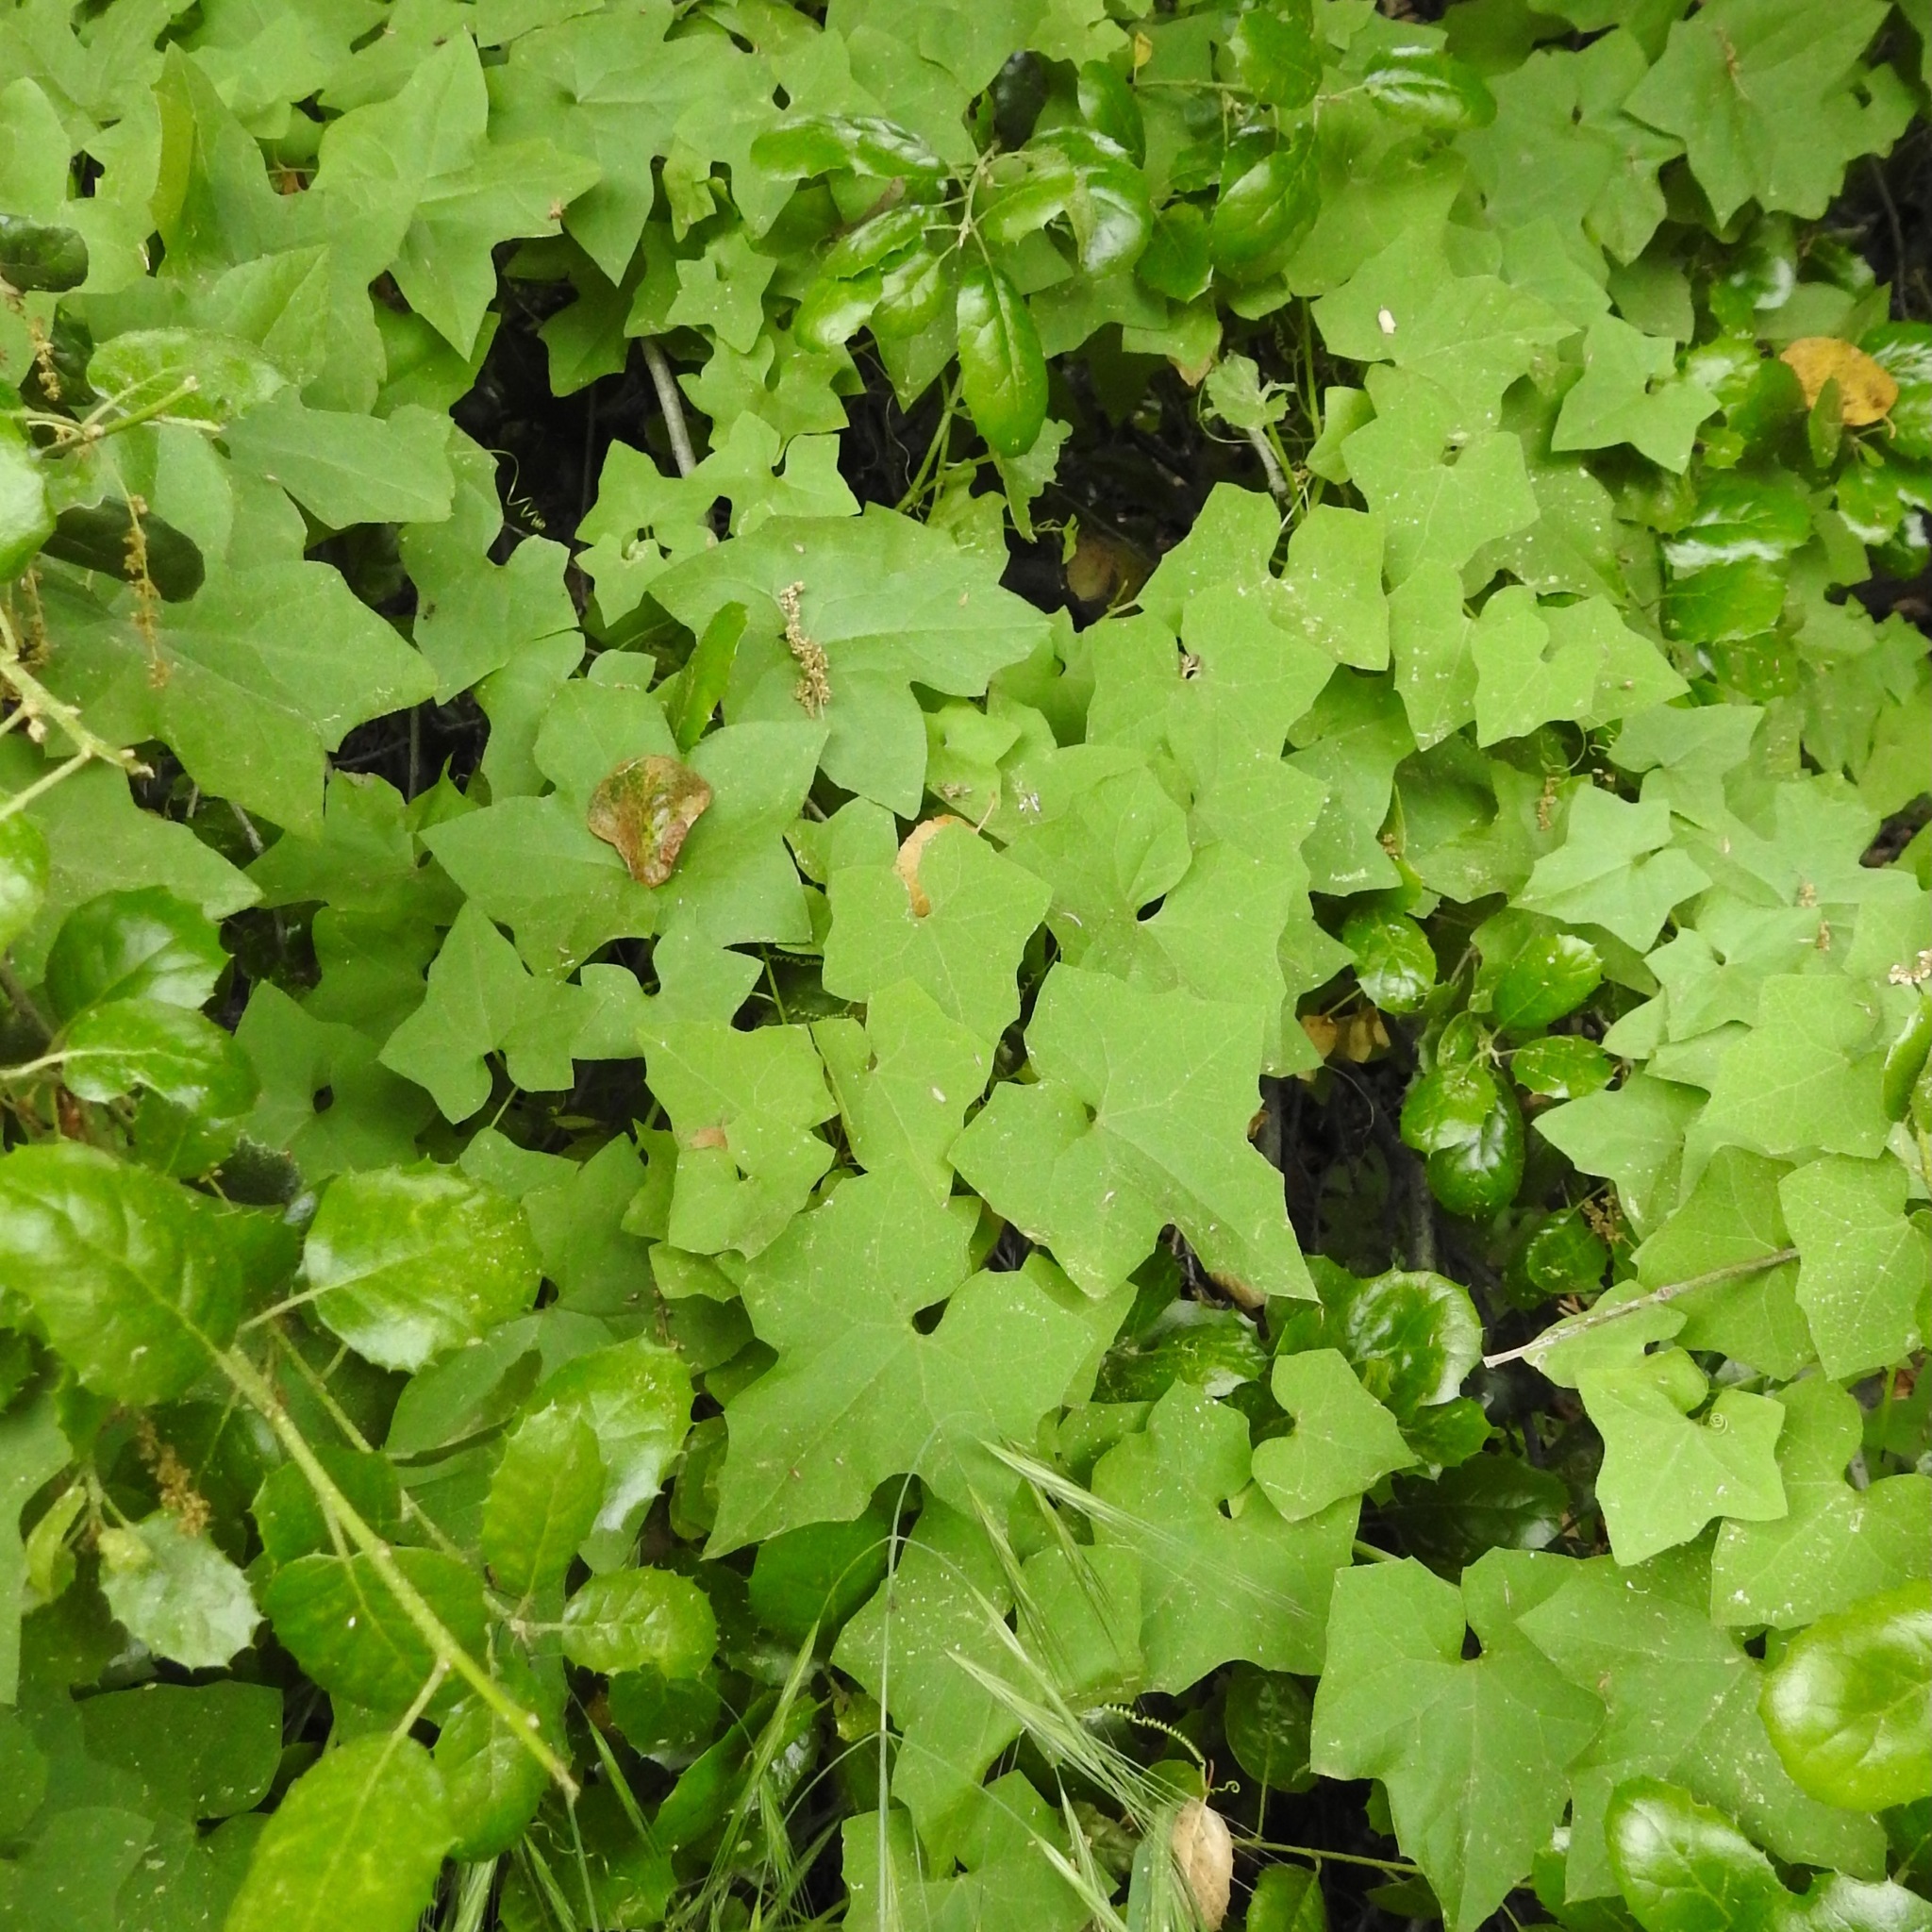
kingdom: Plantae
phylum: Tracheophyta
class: Magnoliopsida
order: Cucurbitales
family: Cucurbitaceae
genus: Marah
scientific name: Marah fabacea
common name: California manroot
